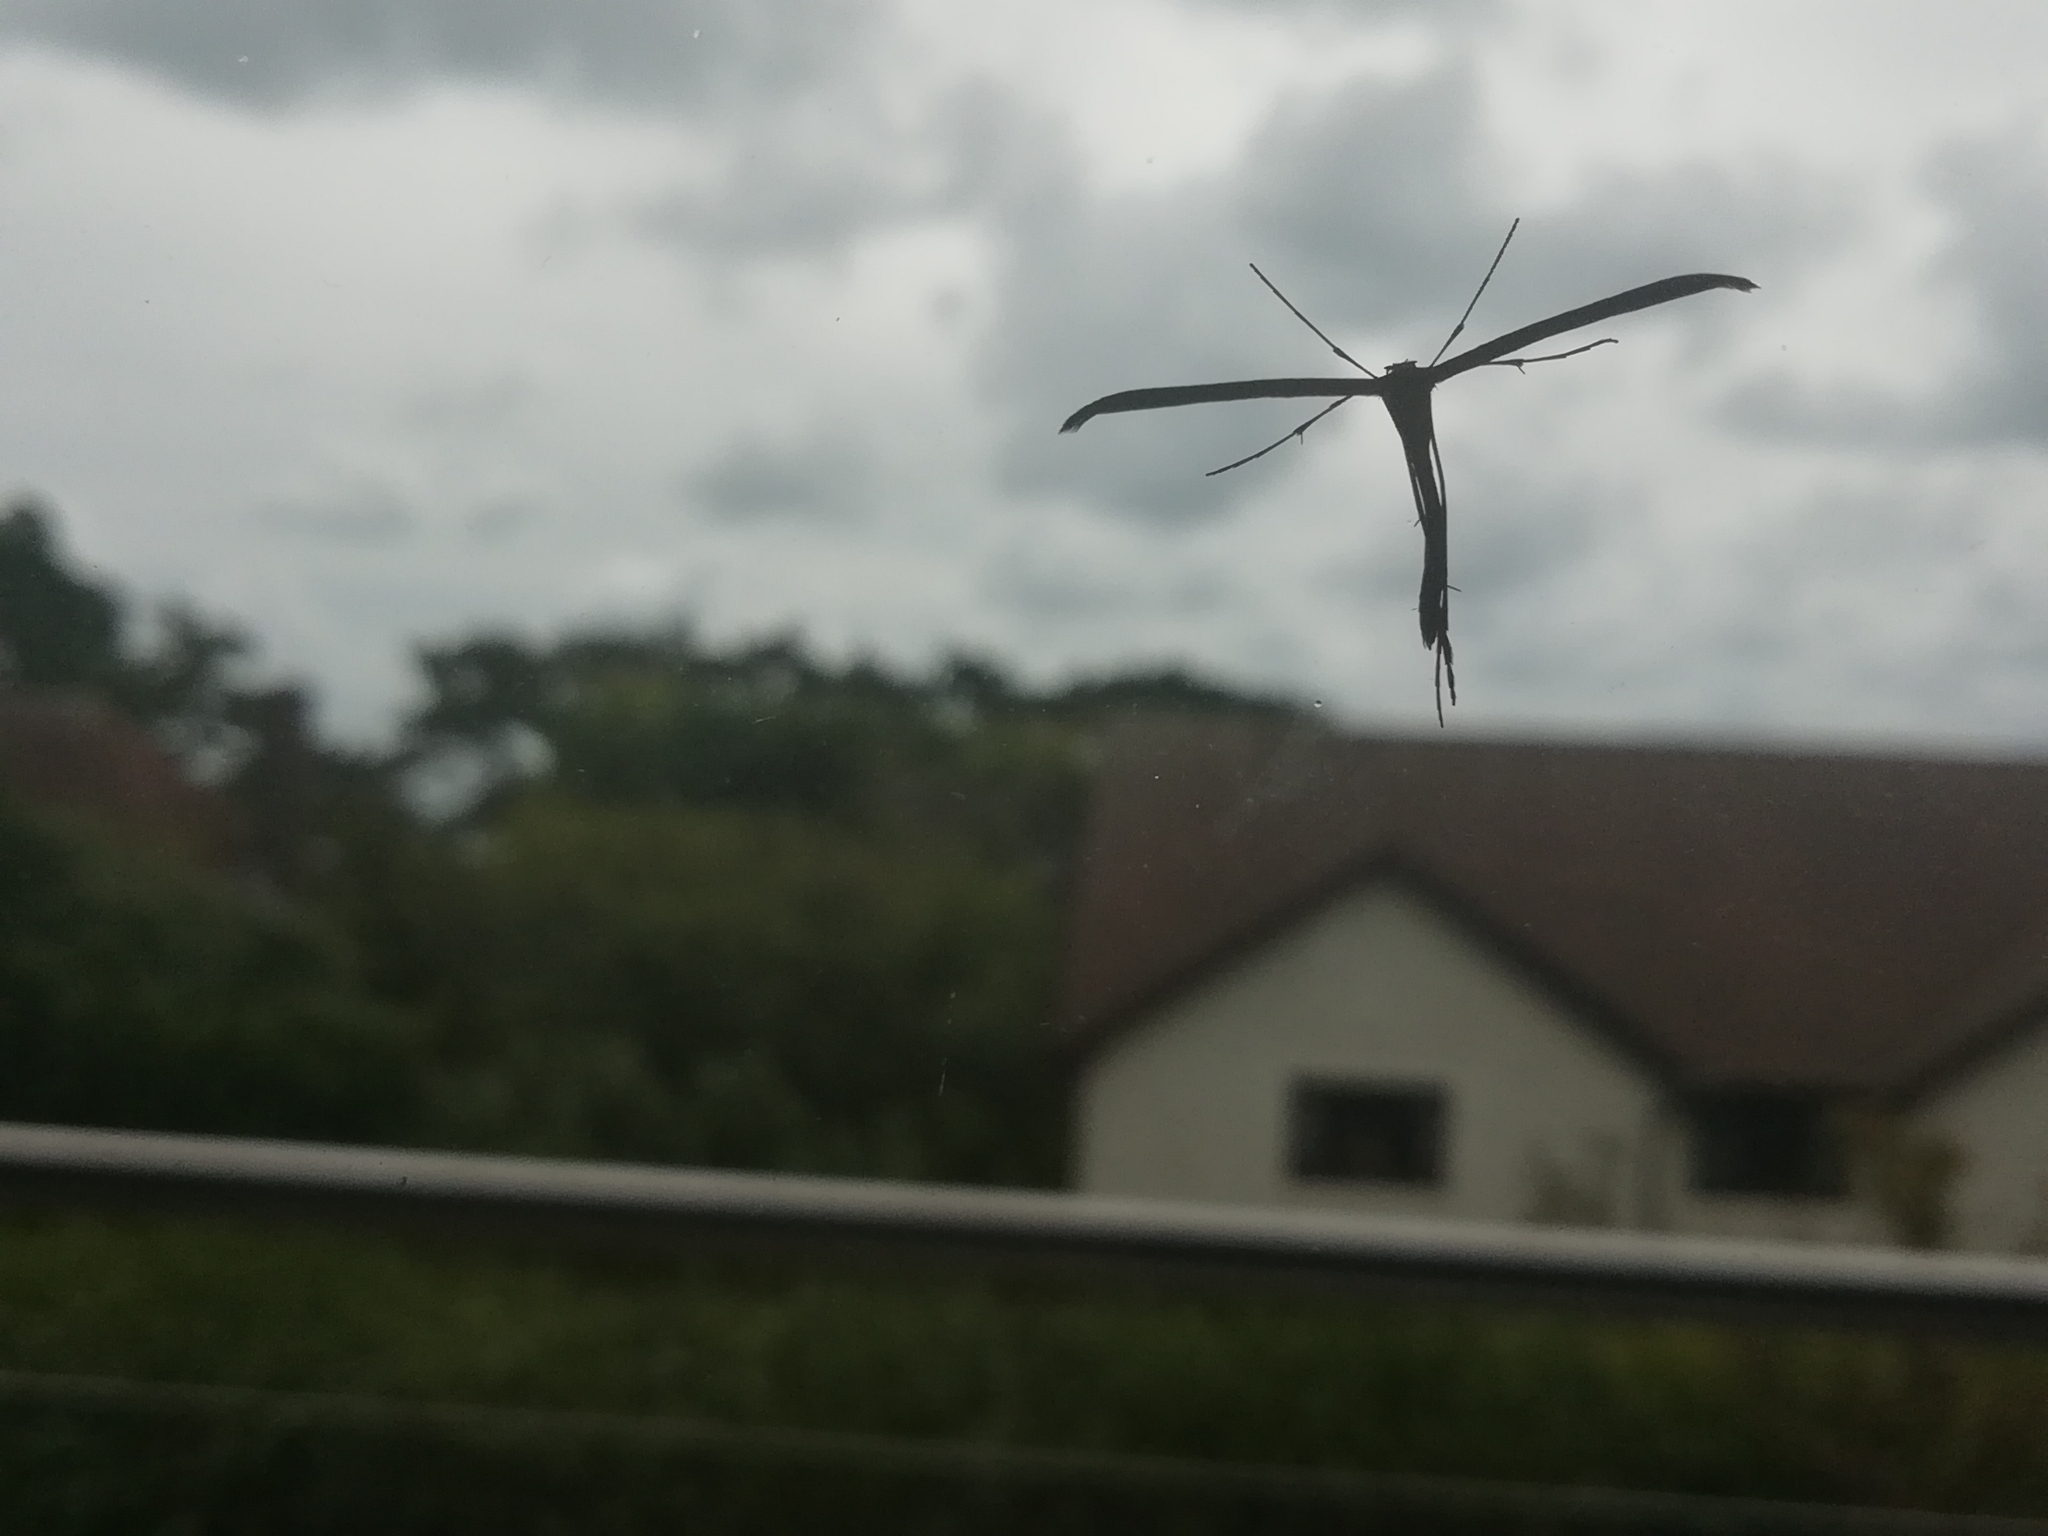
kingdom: Animalia
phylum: Arthropoda
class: Insecta
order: Lepidoptera
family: Pterophoridae
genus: Emmelina
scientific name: Emmelina monodactyla
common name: Common plume
